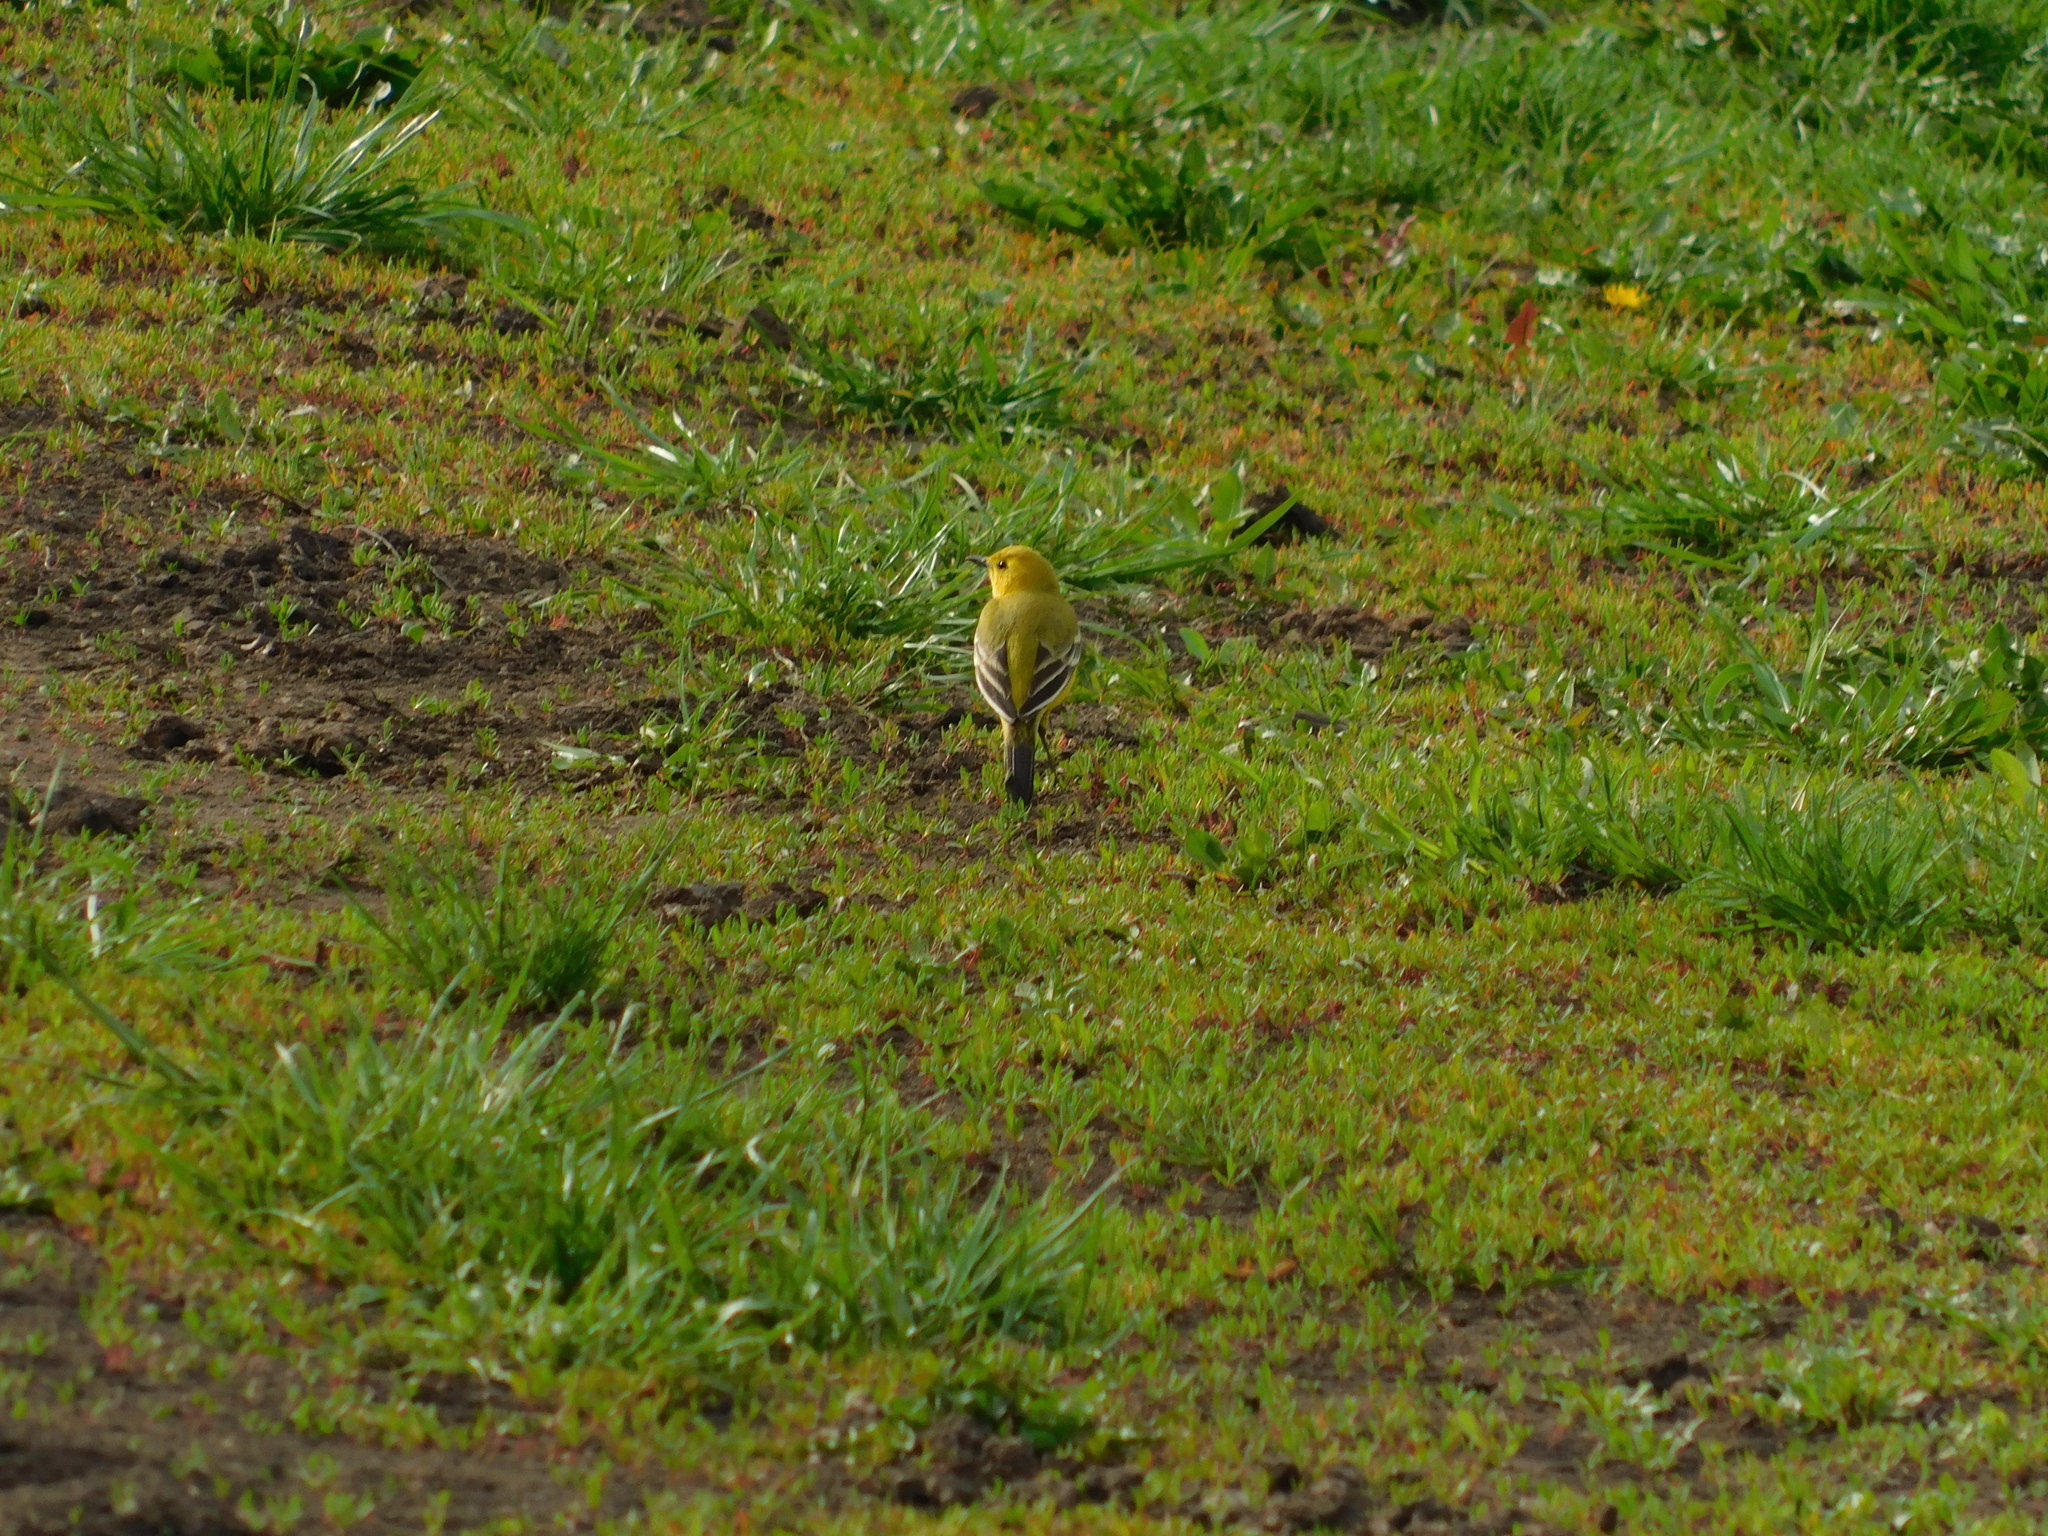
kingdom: Animalia
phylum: Chordata
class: Aves
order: Passeriformes
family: Motacillidae
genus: Motacilla
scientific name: Motacilla flava
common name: Western yellow wagtail
